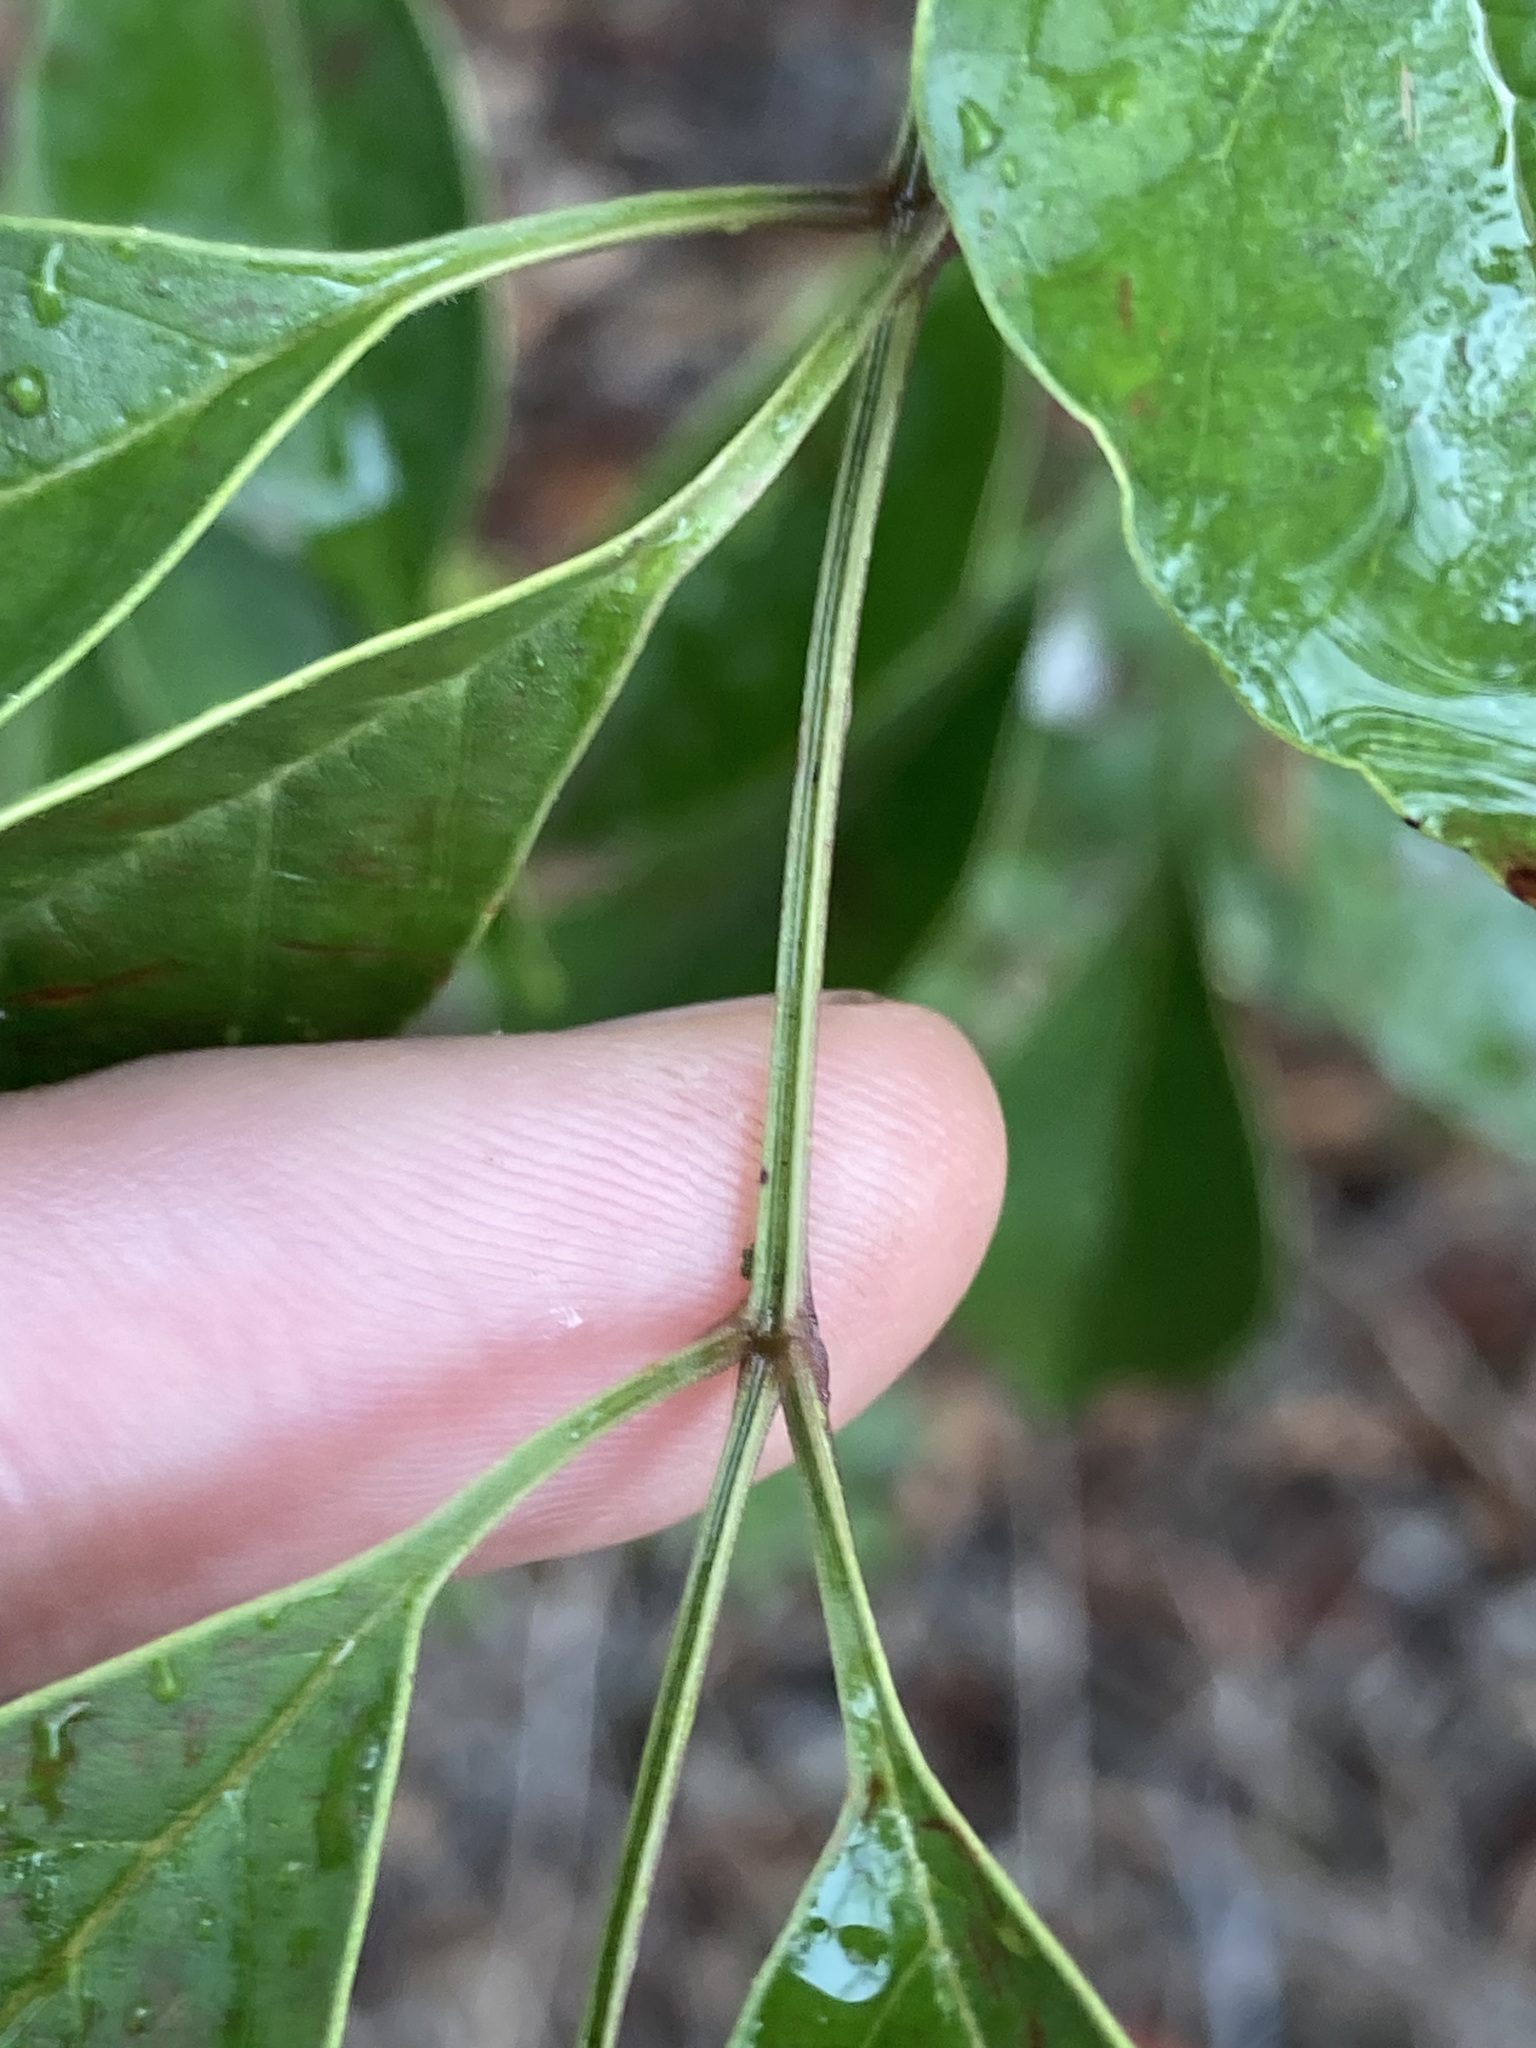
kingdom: Plantae
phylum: Tracheophyta
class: Magnoliopsida
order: Lamiales
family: Oleaceae
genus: Fraxinus
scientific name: Fraxinus griffithii
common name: Himalayan ash
